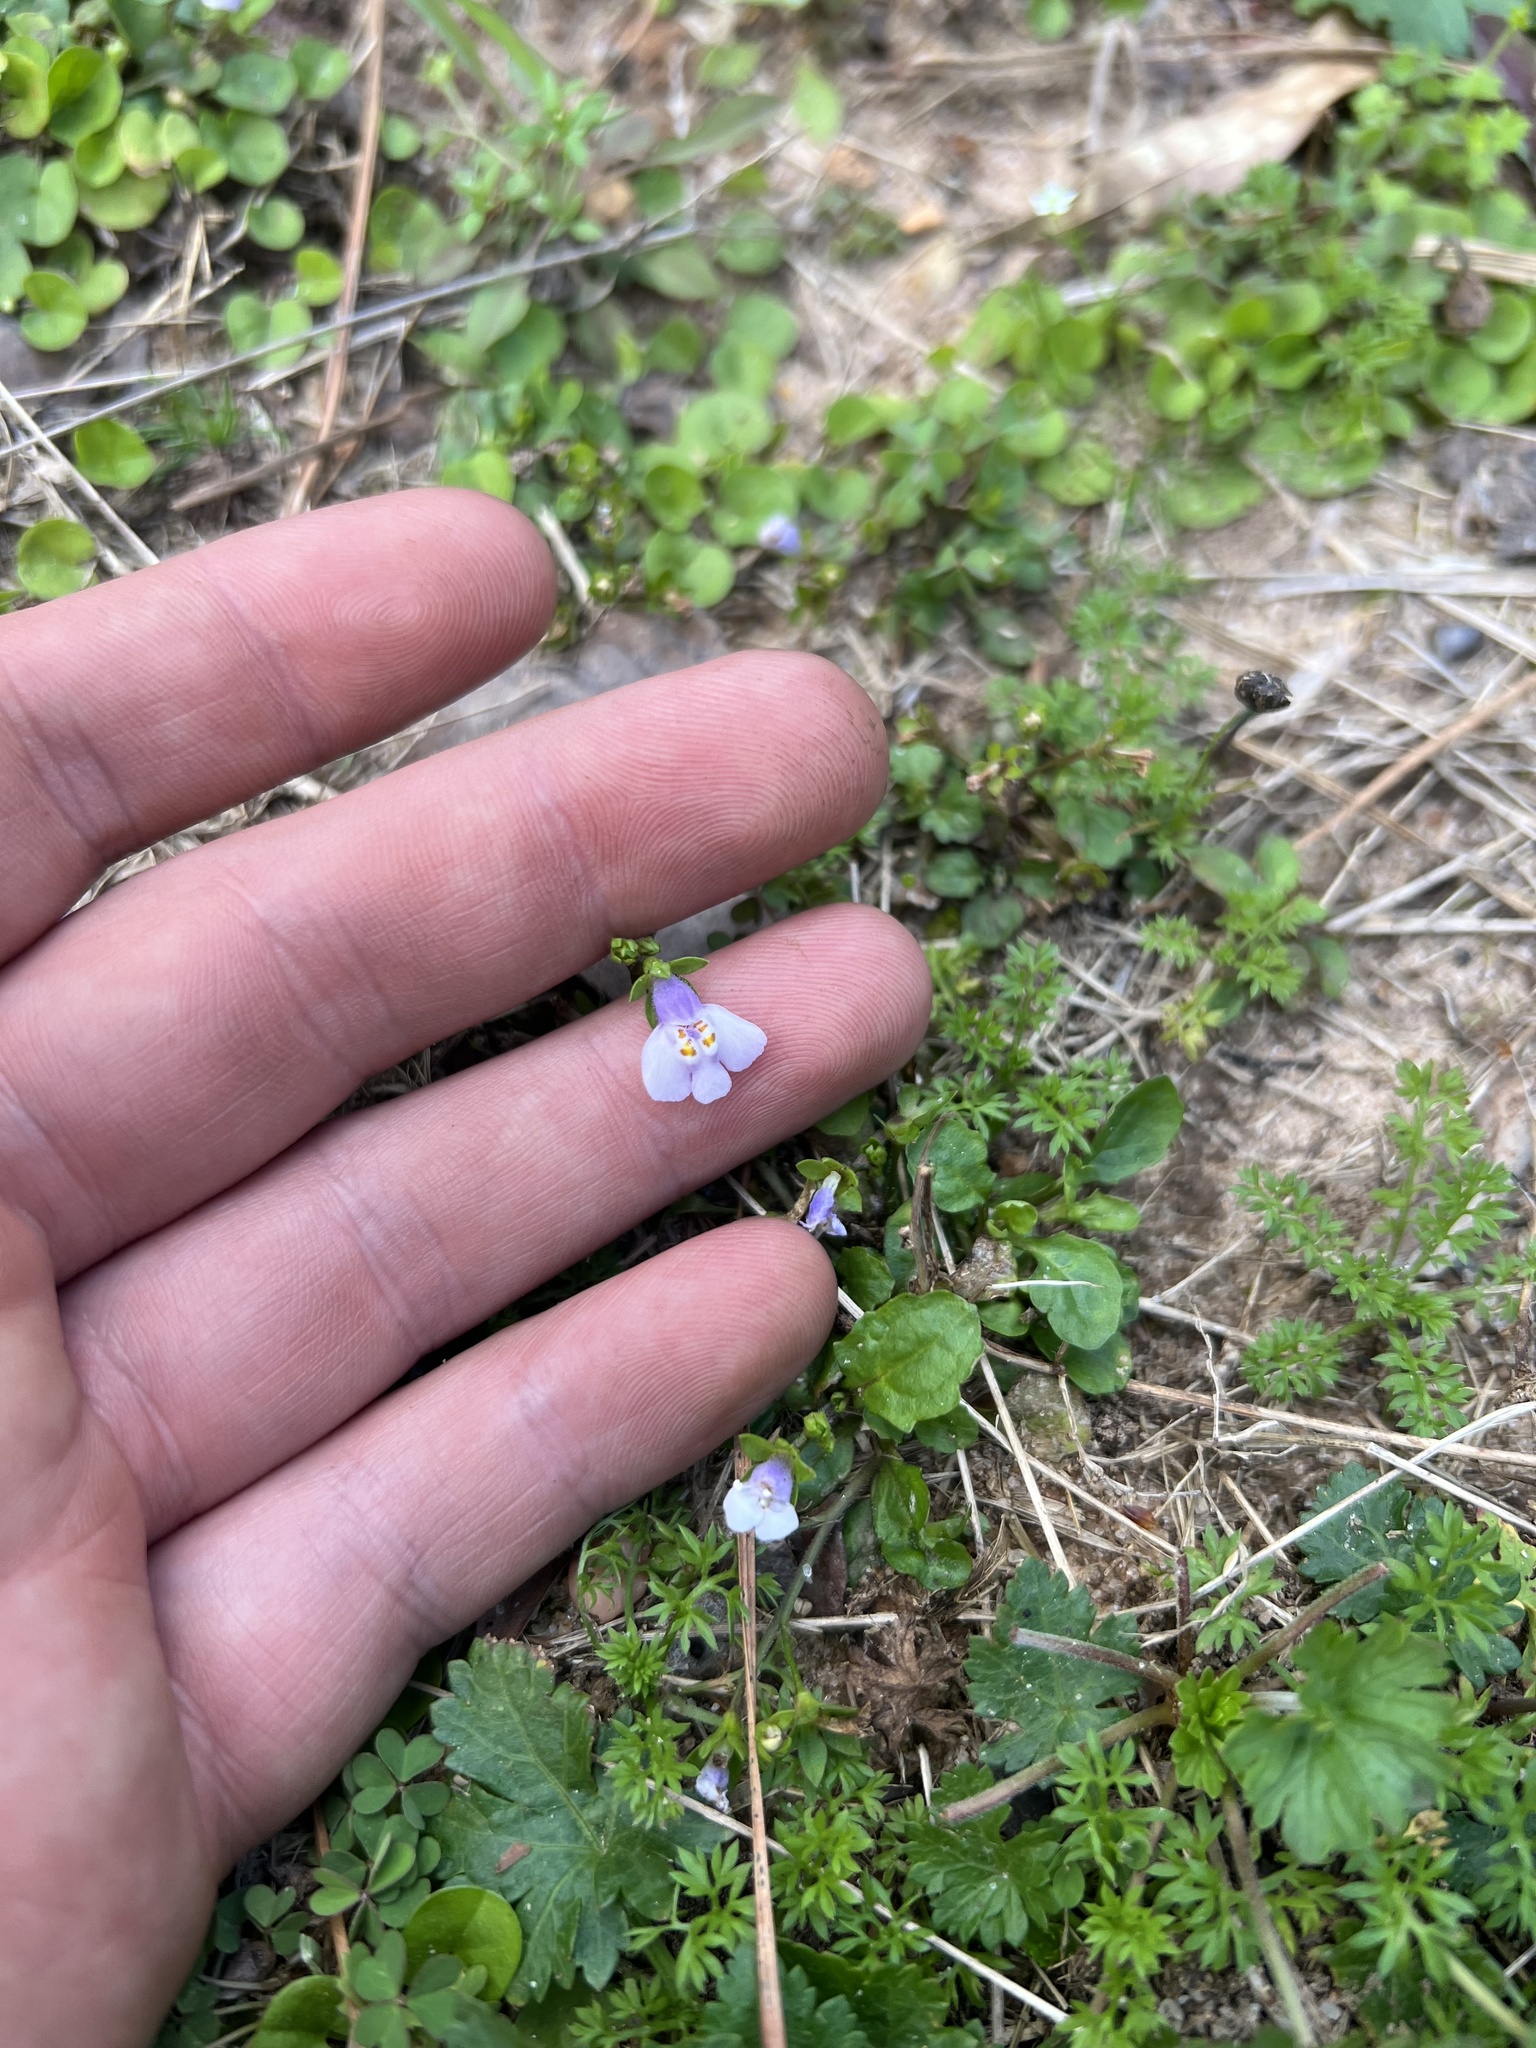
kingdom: Plantae
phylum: Tracheophyta
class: Magnoliopsida
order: Lamiales
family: Mazaceae
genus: Mazus
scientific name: Mazus pumilus
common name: Japanese mazus
